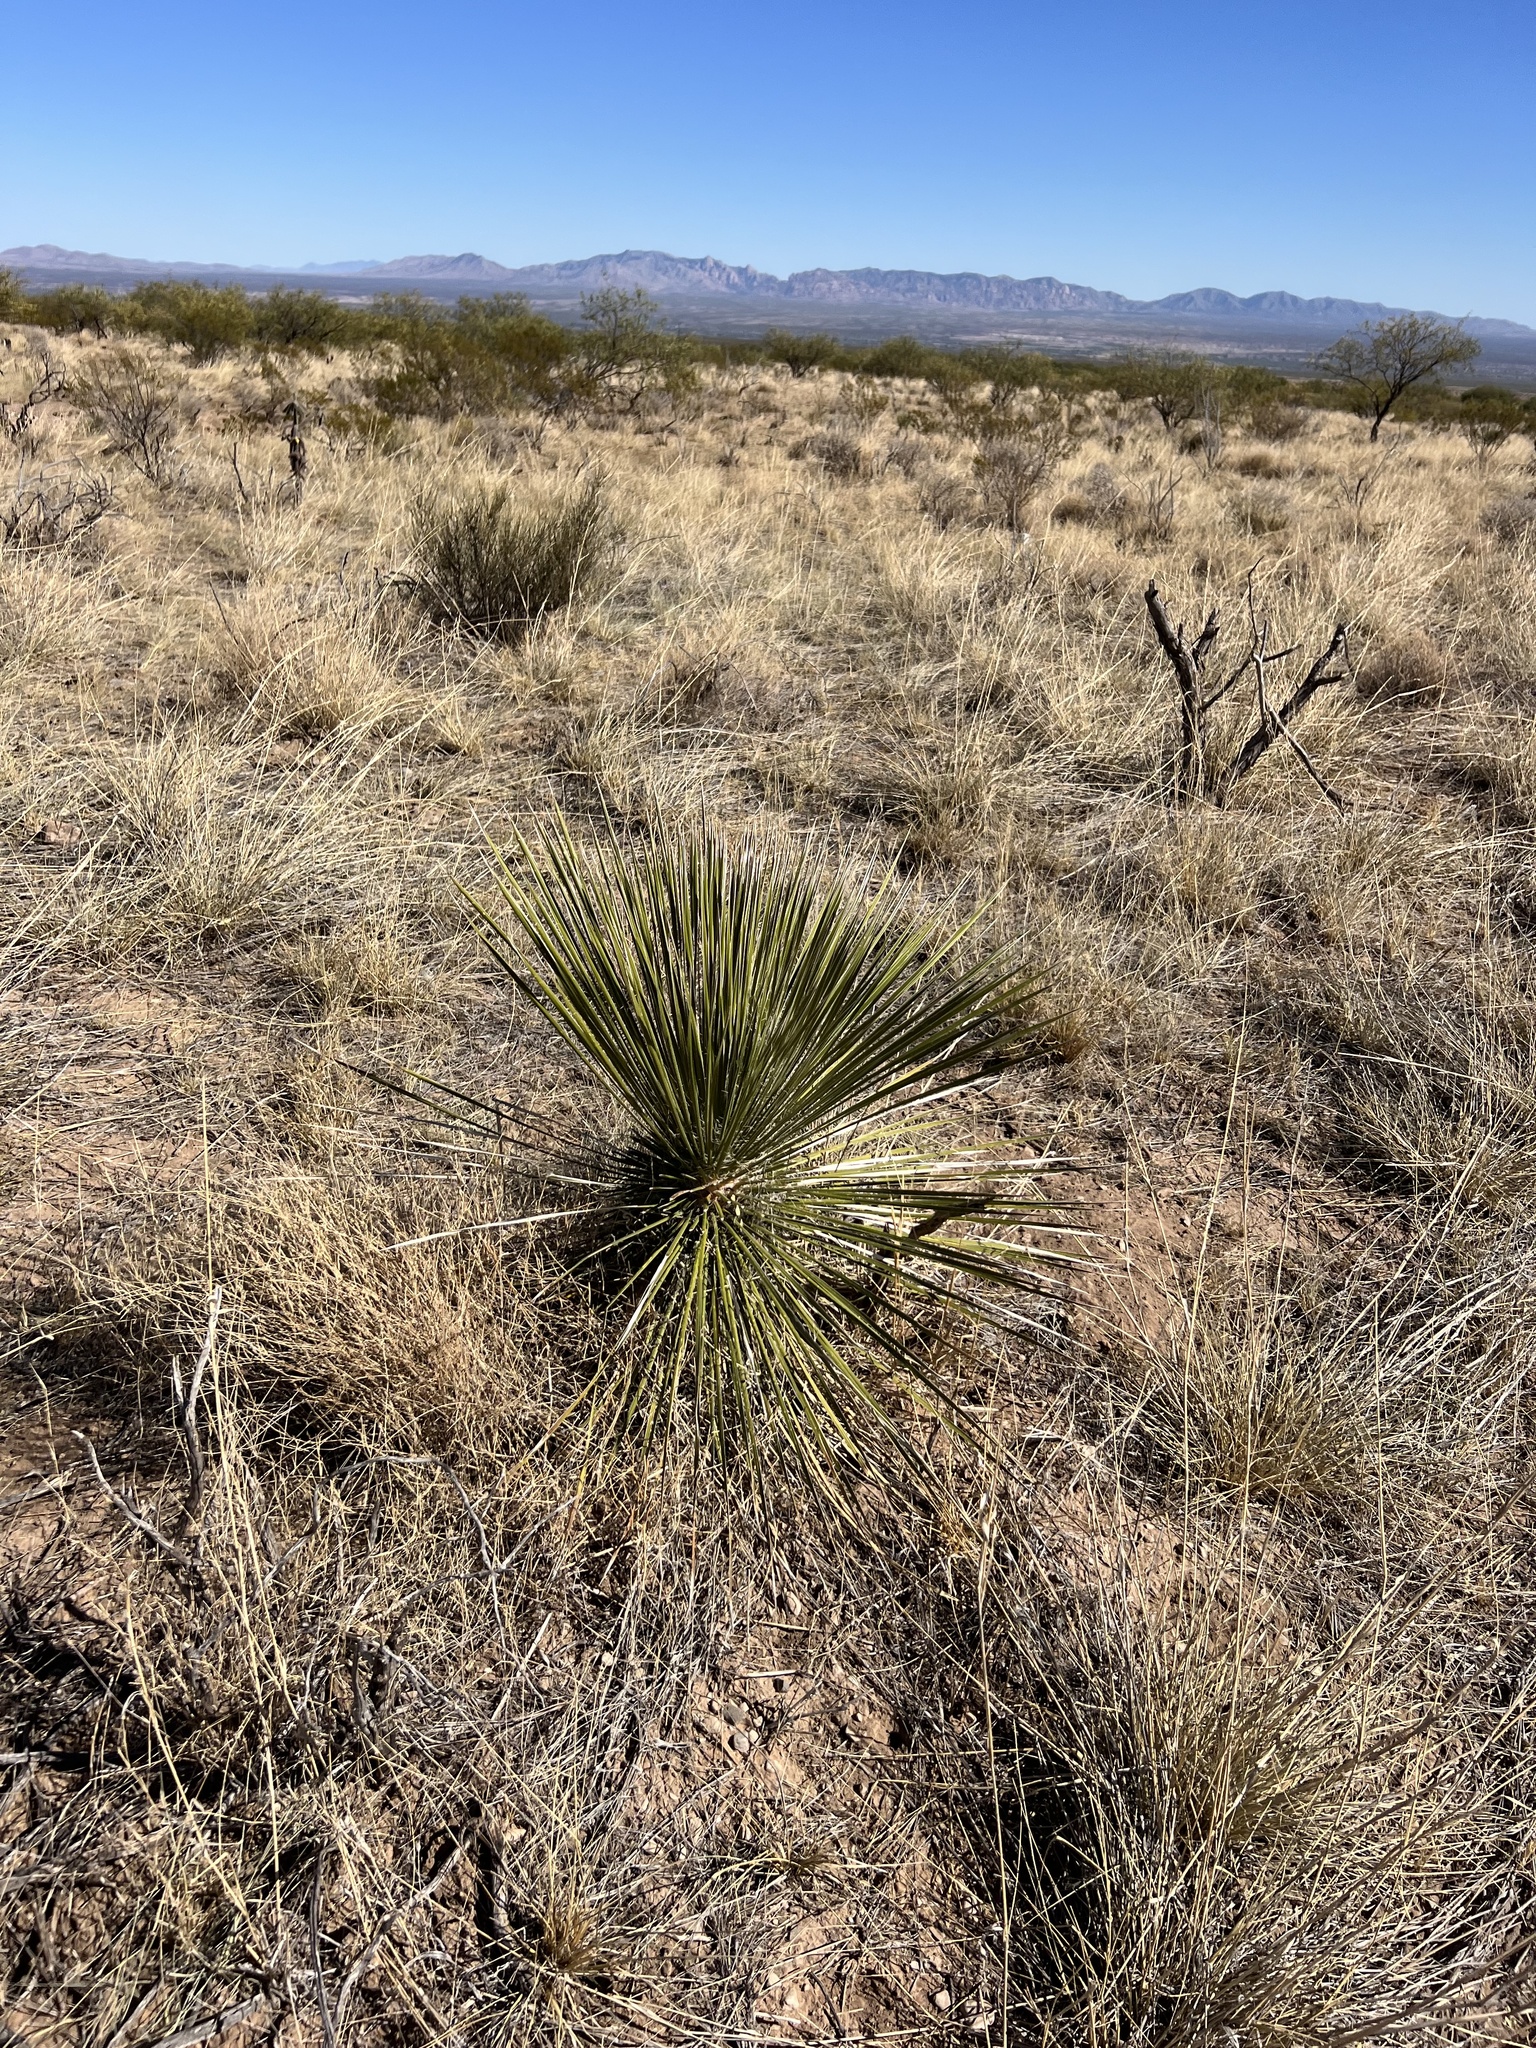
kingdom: Plantae
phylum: Tracheophyta
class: Liliopsida
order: Asparagales
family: Asparagaceae
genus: Yucca
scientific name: Yucca elata
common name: Palmella
